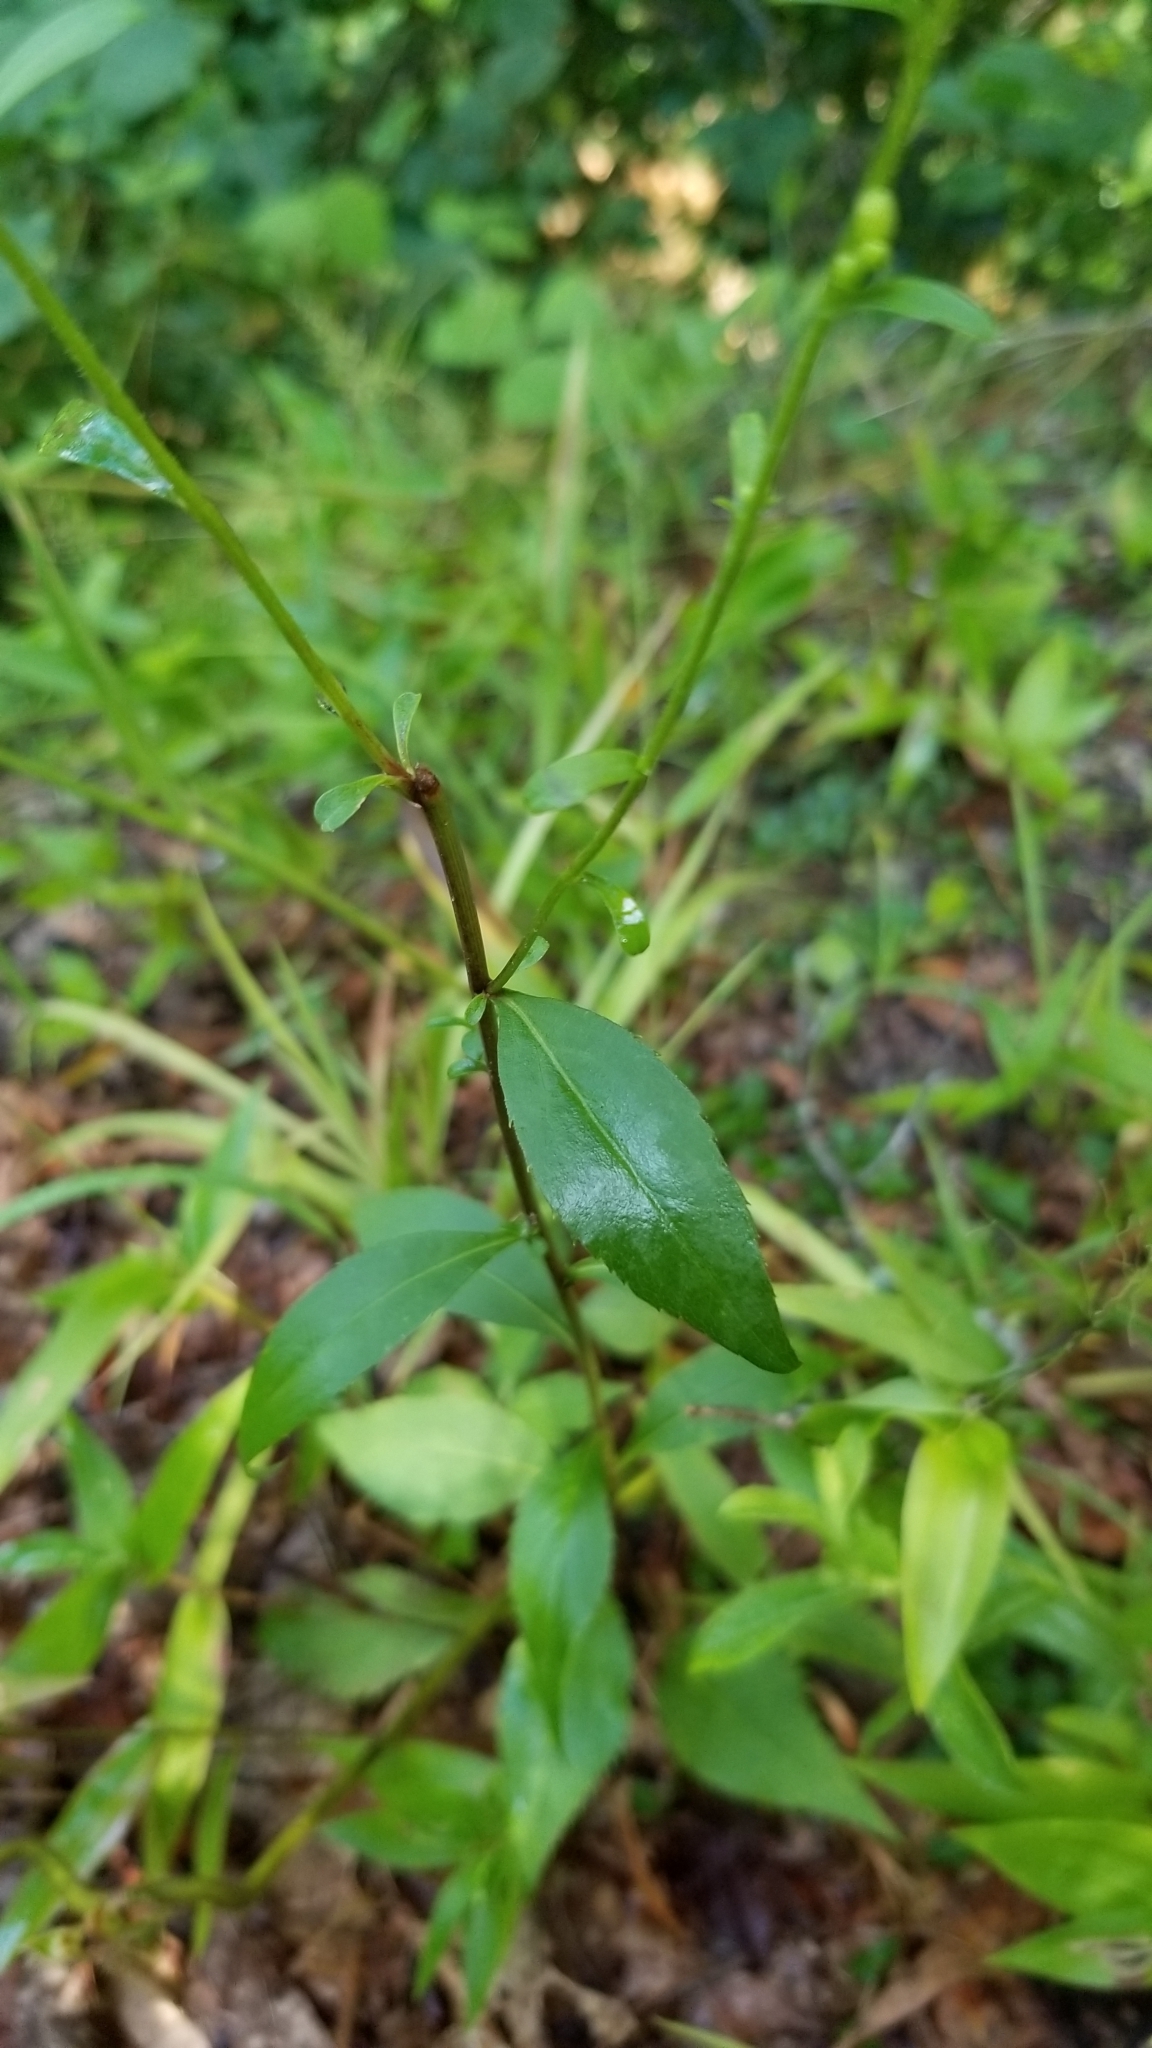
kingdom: Plantae
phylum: Tracheophyta
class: Magnoliopsida
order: Asterales
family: Asteraceae
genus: Solidago
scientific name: Solidago arguta
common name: Atlantic goldenrod
